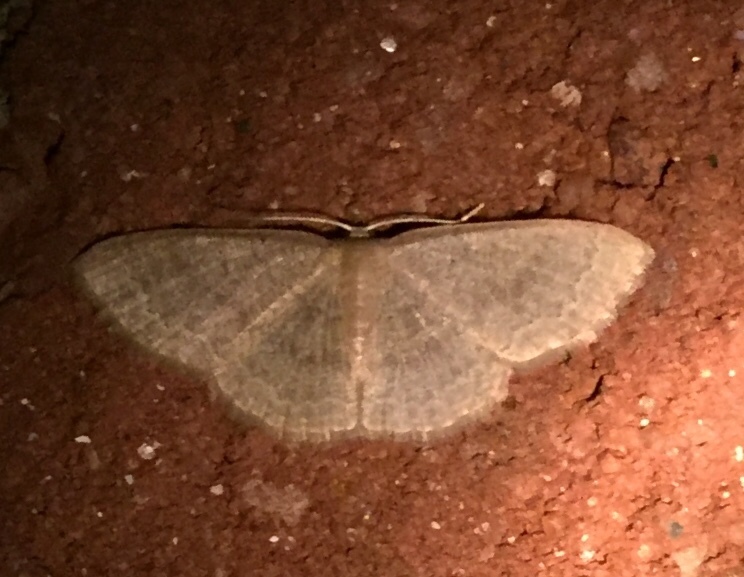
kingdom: Animalia
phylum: Arthropoda
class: Insecta
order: Lepidoptera
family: Geometridae
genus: Pleuroprucha
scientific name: Pleuroprucha insulsaria
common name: Common tan wave
